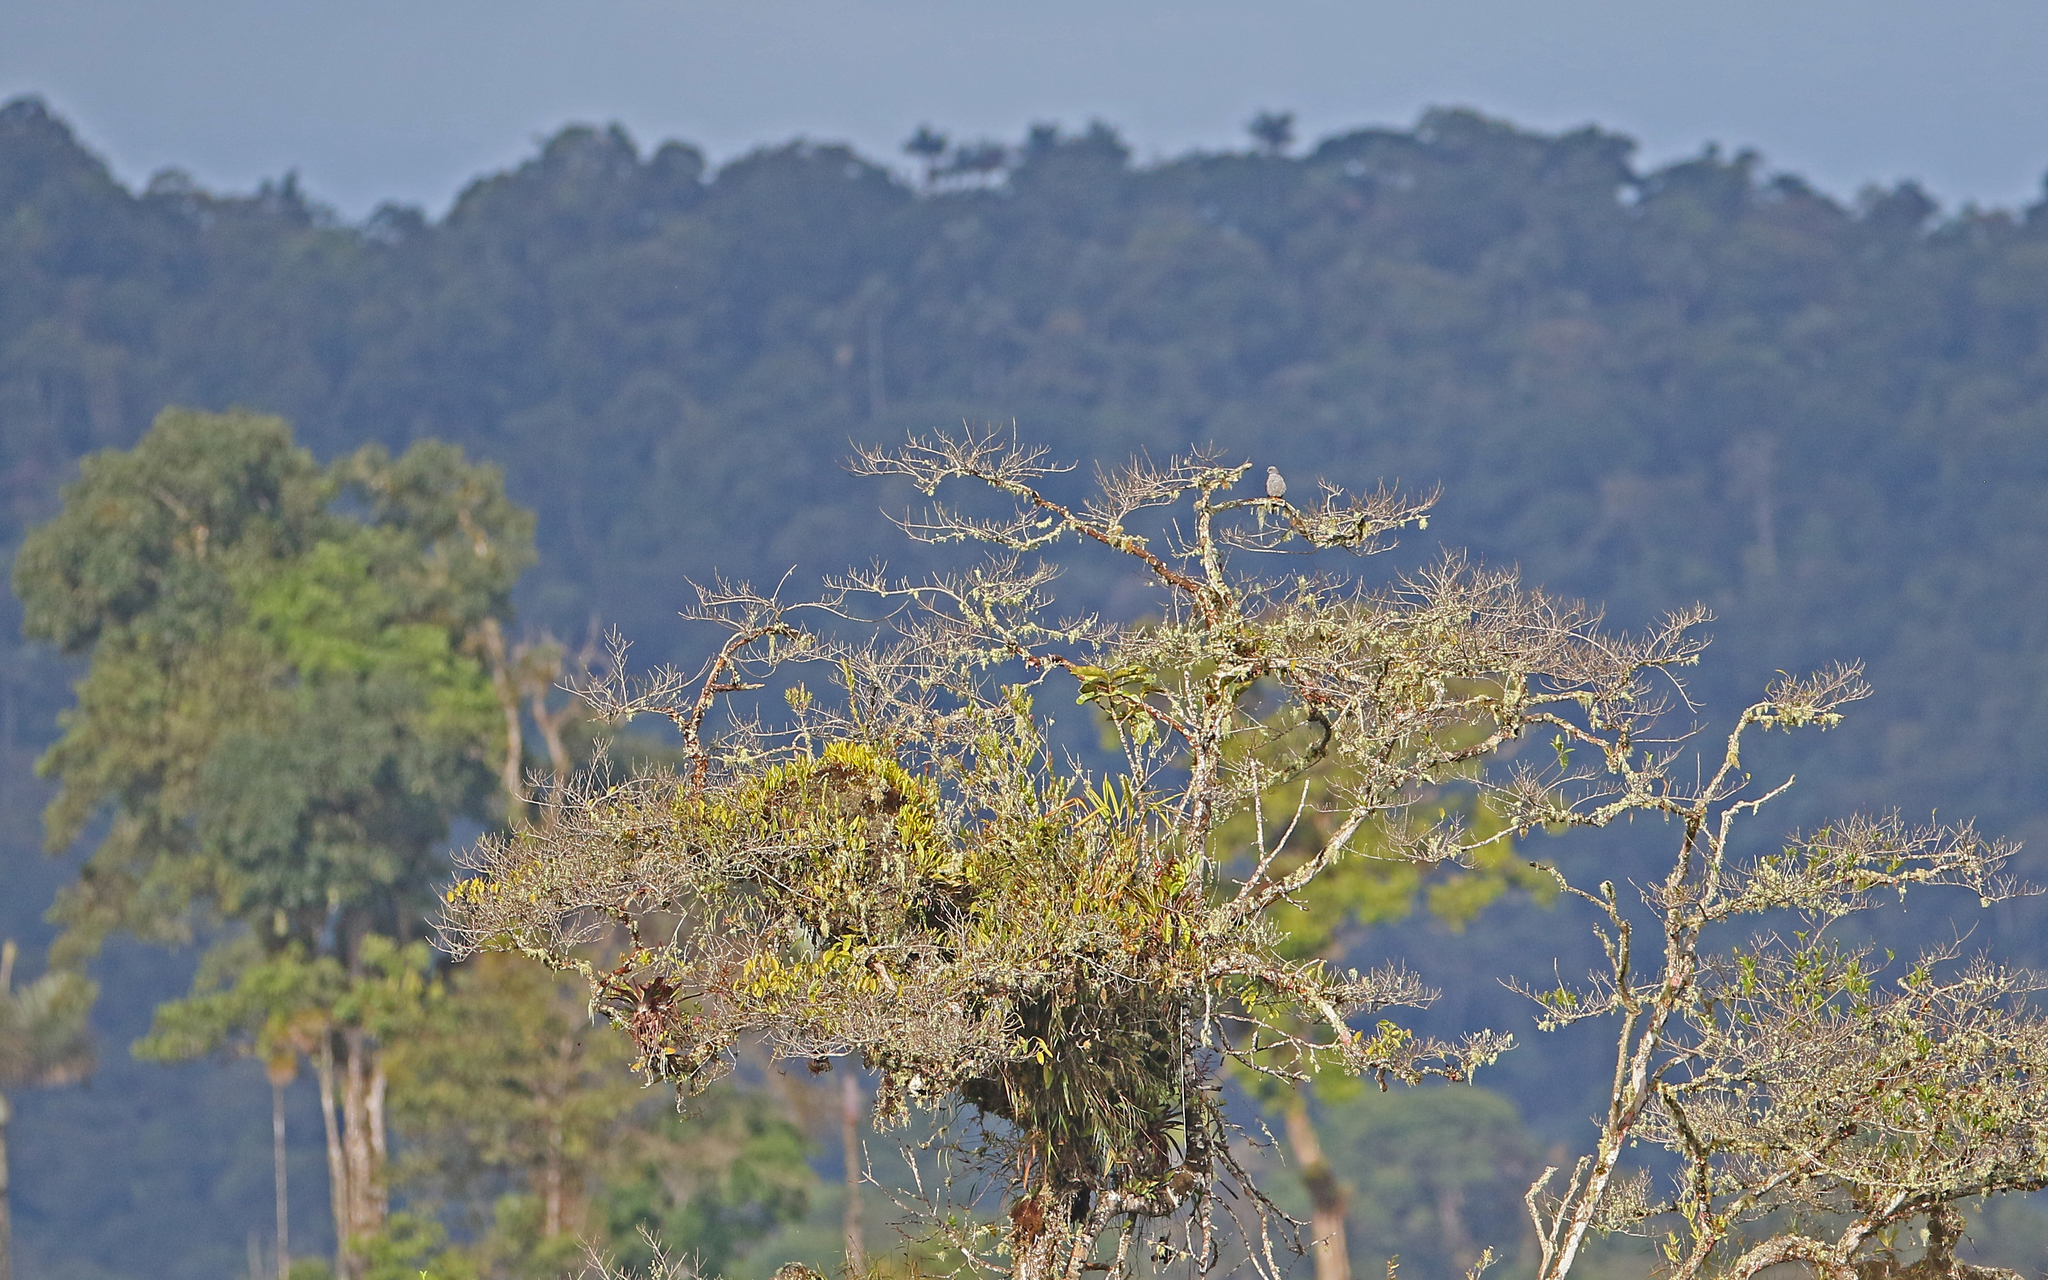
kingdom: Animalia
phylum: Chordata
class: Aves
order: Accipitriformes
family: Accipitridae
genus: Ictinia
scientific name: Ictinia plumbea
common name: Plumbeous kite
